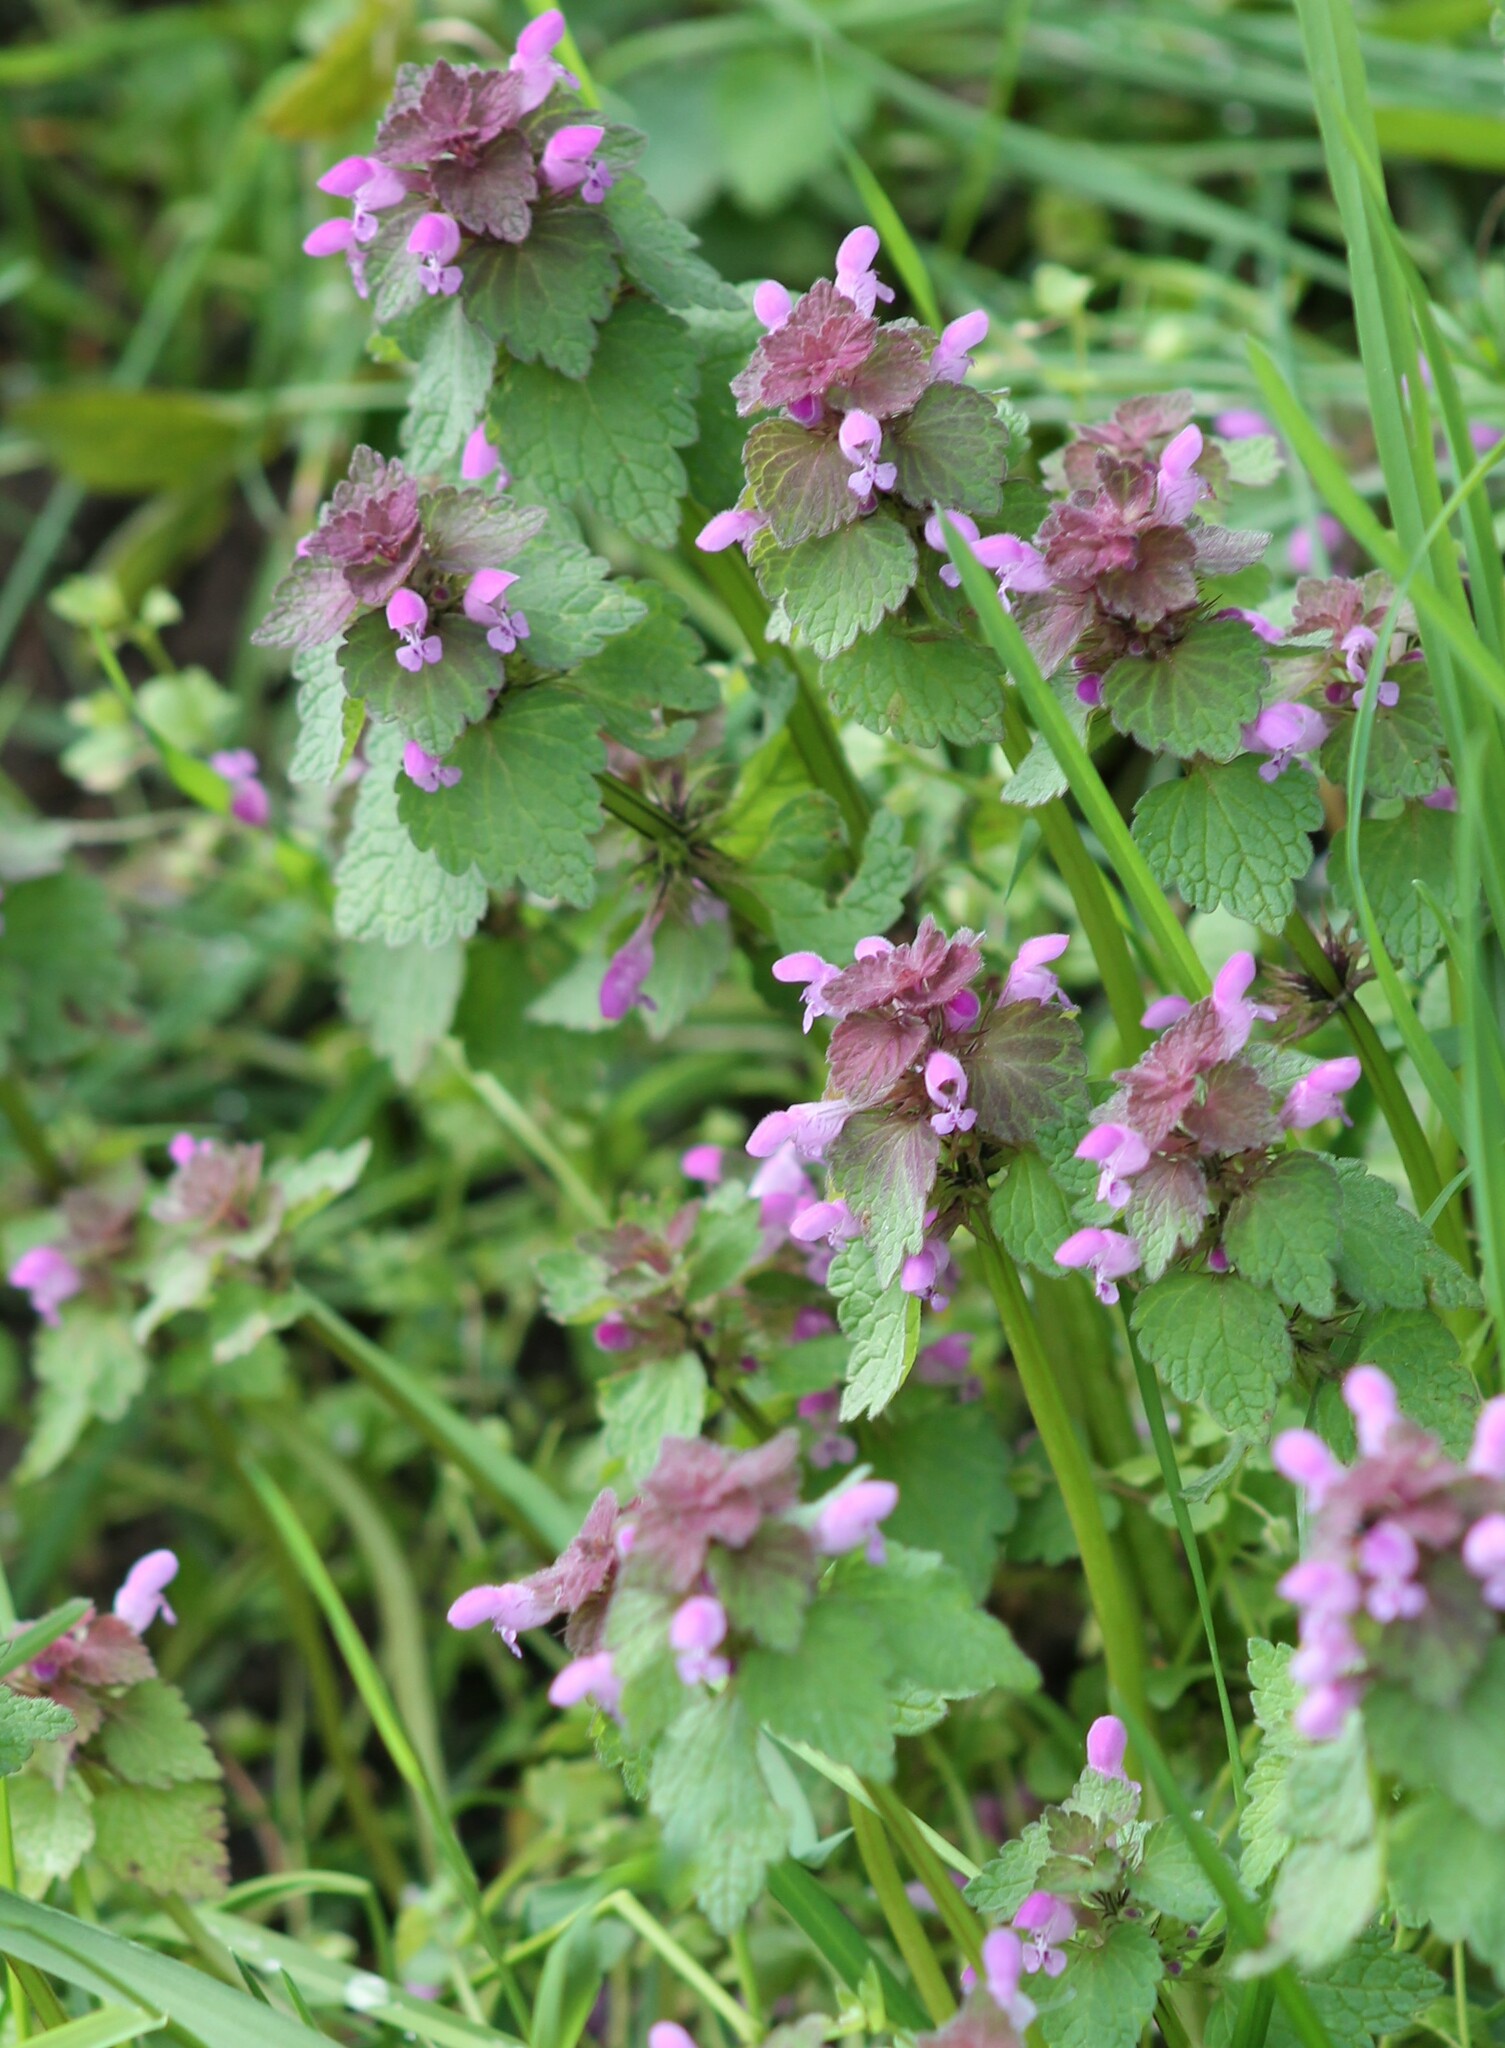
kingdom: Plantae
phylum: Tracheophyta
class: Magnoliopsida
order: Lamiales
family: Lamiaceae
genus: Lamium
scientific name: Lamium purpureum
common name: Red dead-nettle
